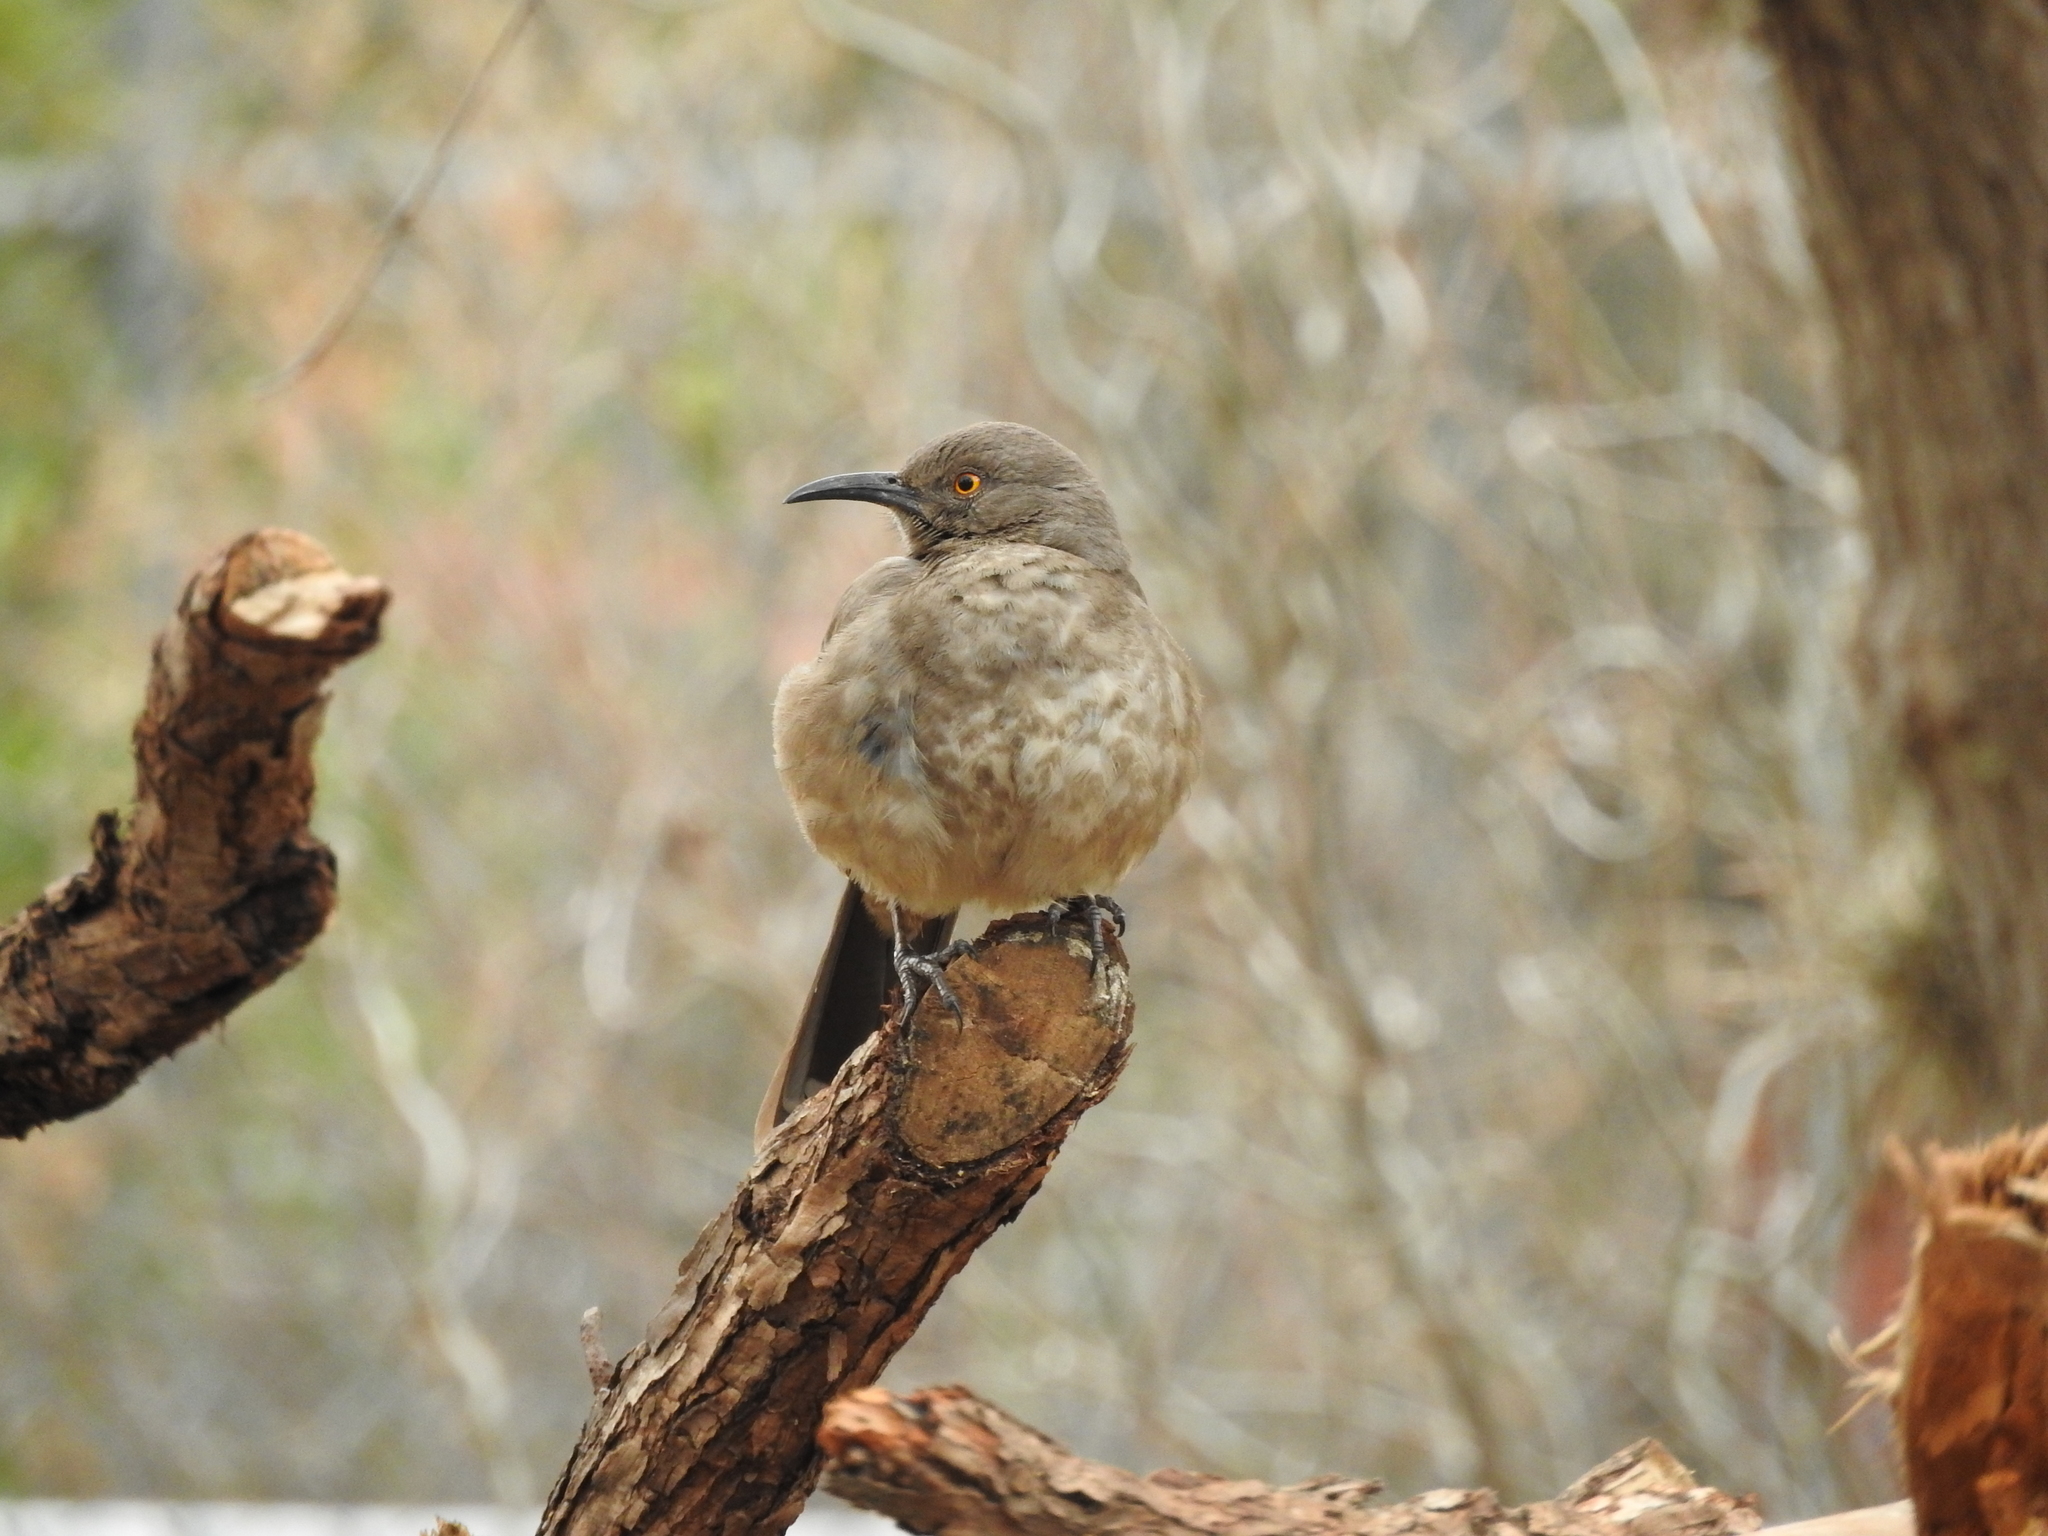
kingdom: Animalia
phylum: Chordata
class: Aves
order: Passeriformes
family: Mimidae
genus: Toxostoma
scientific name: Toxostoma curvirostre
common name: Curve-billed thrasher
